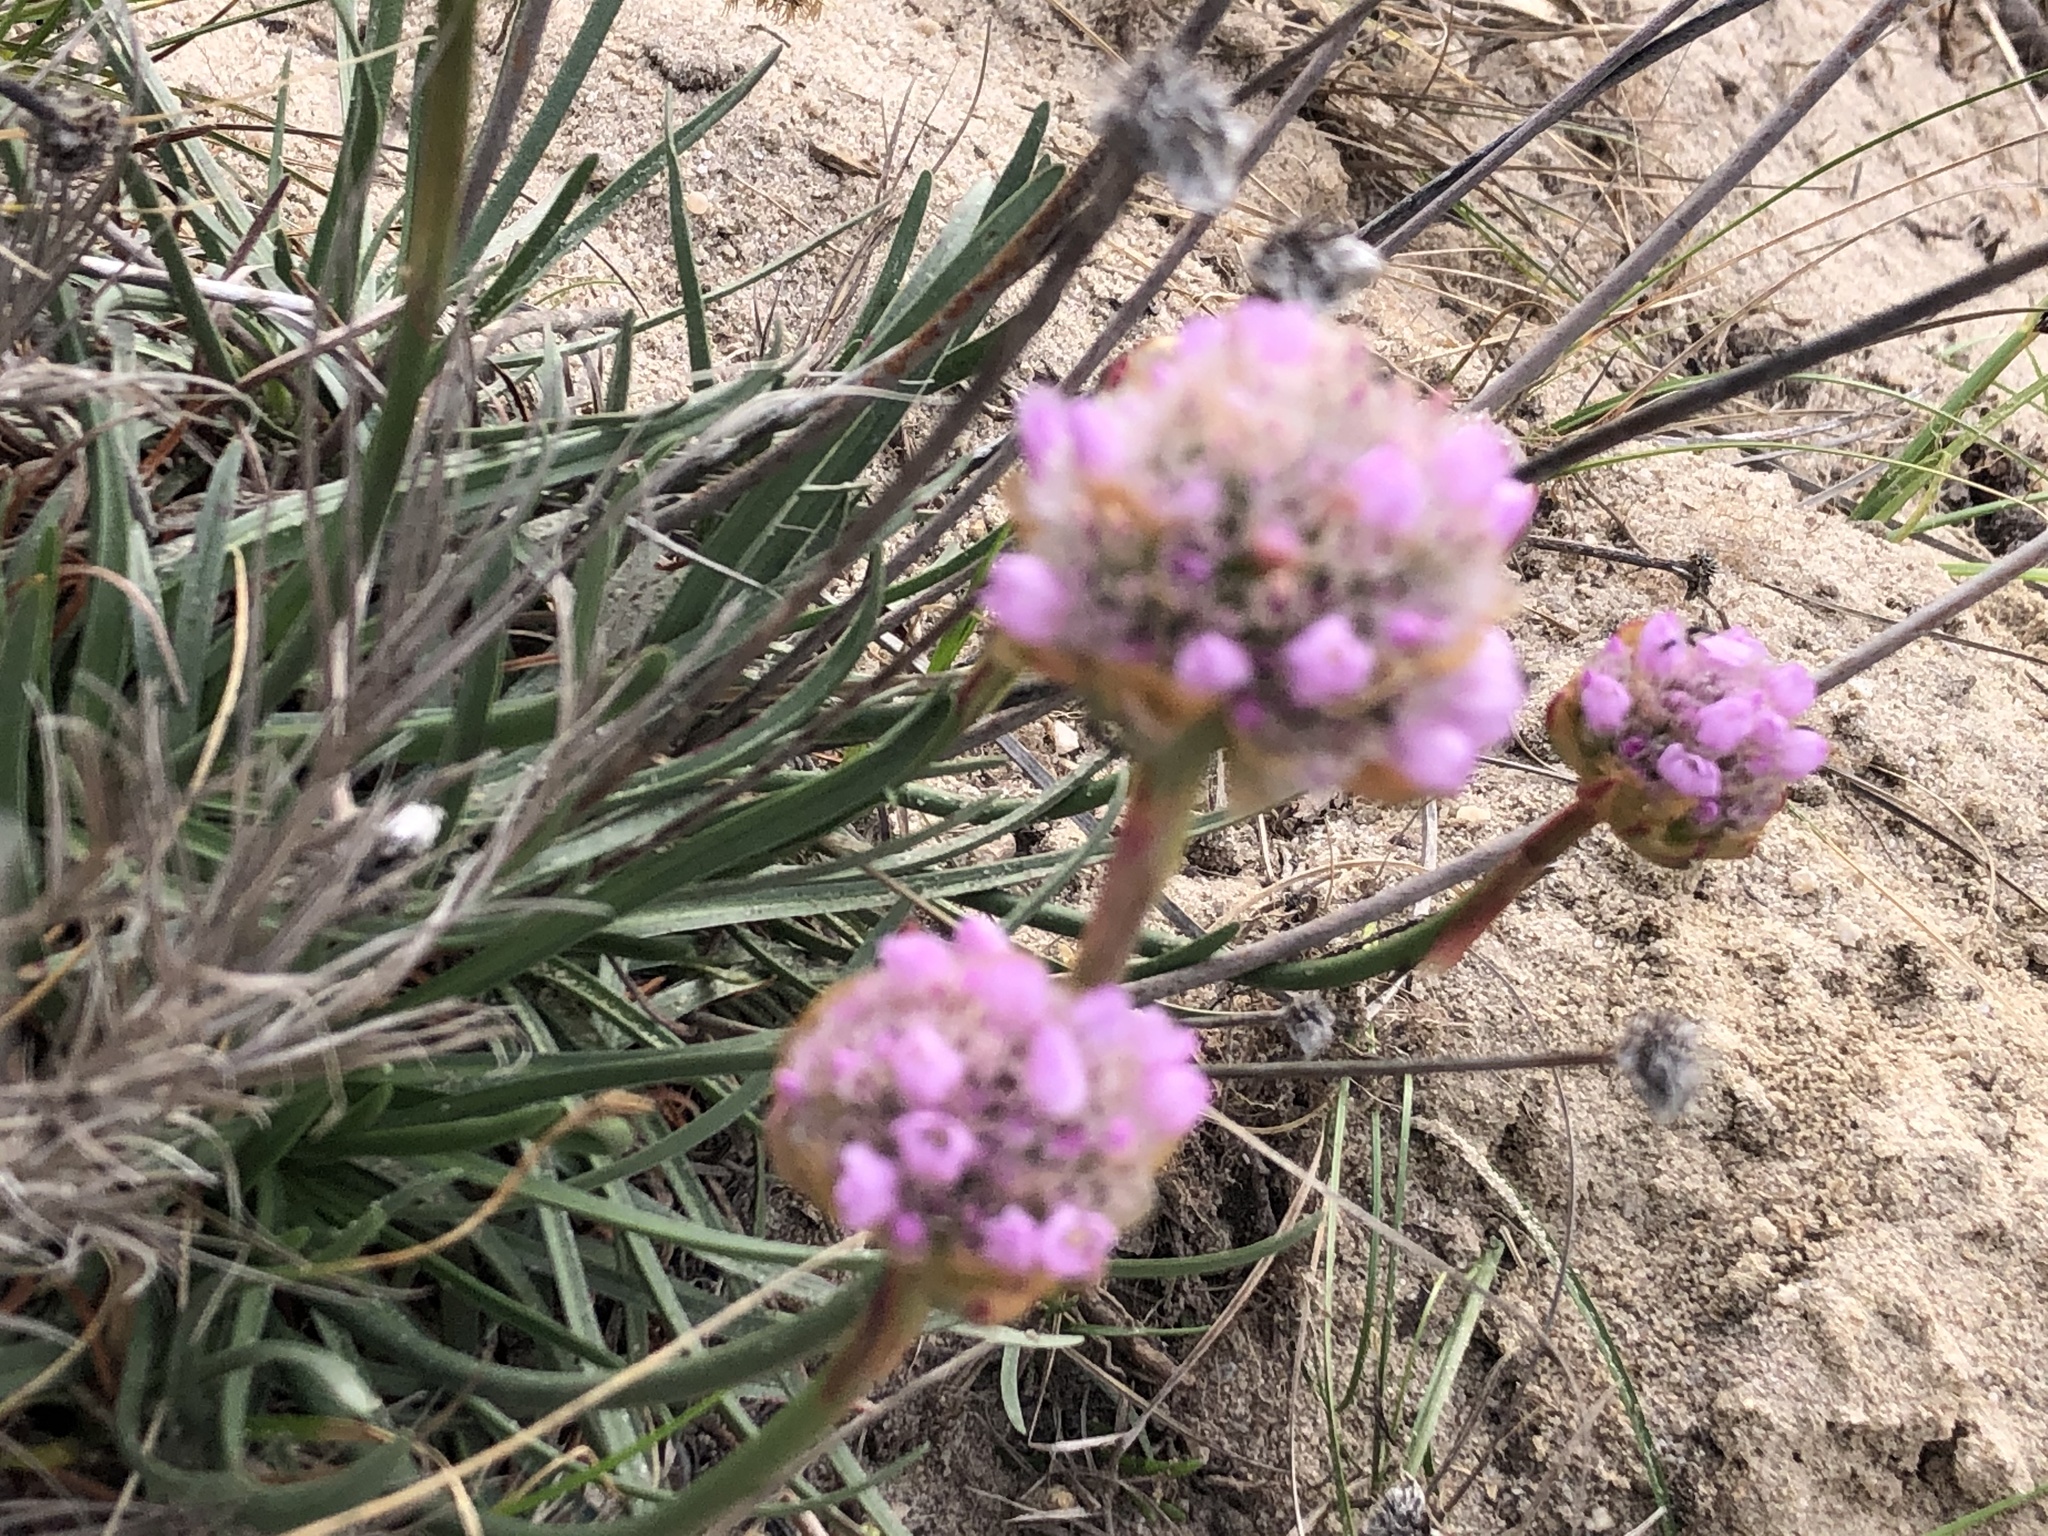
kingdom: Plantae
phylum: Tracheophyta
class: Magnoliopsida
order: Caryophyllales
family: Plumbaginaceae
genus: Armeria
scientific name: Armeria maritima
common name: Thrift
